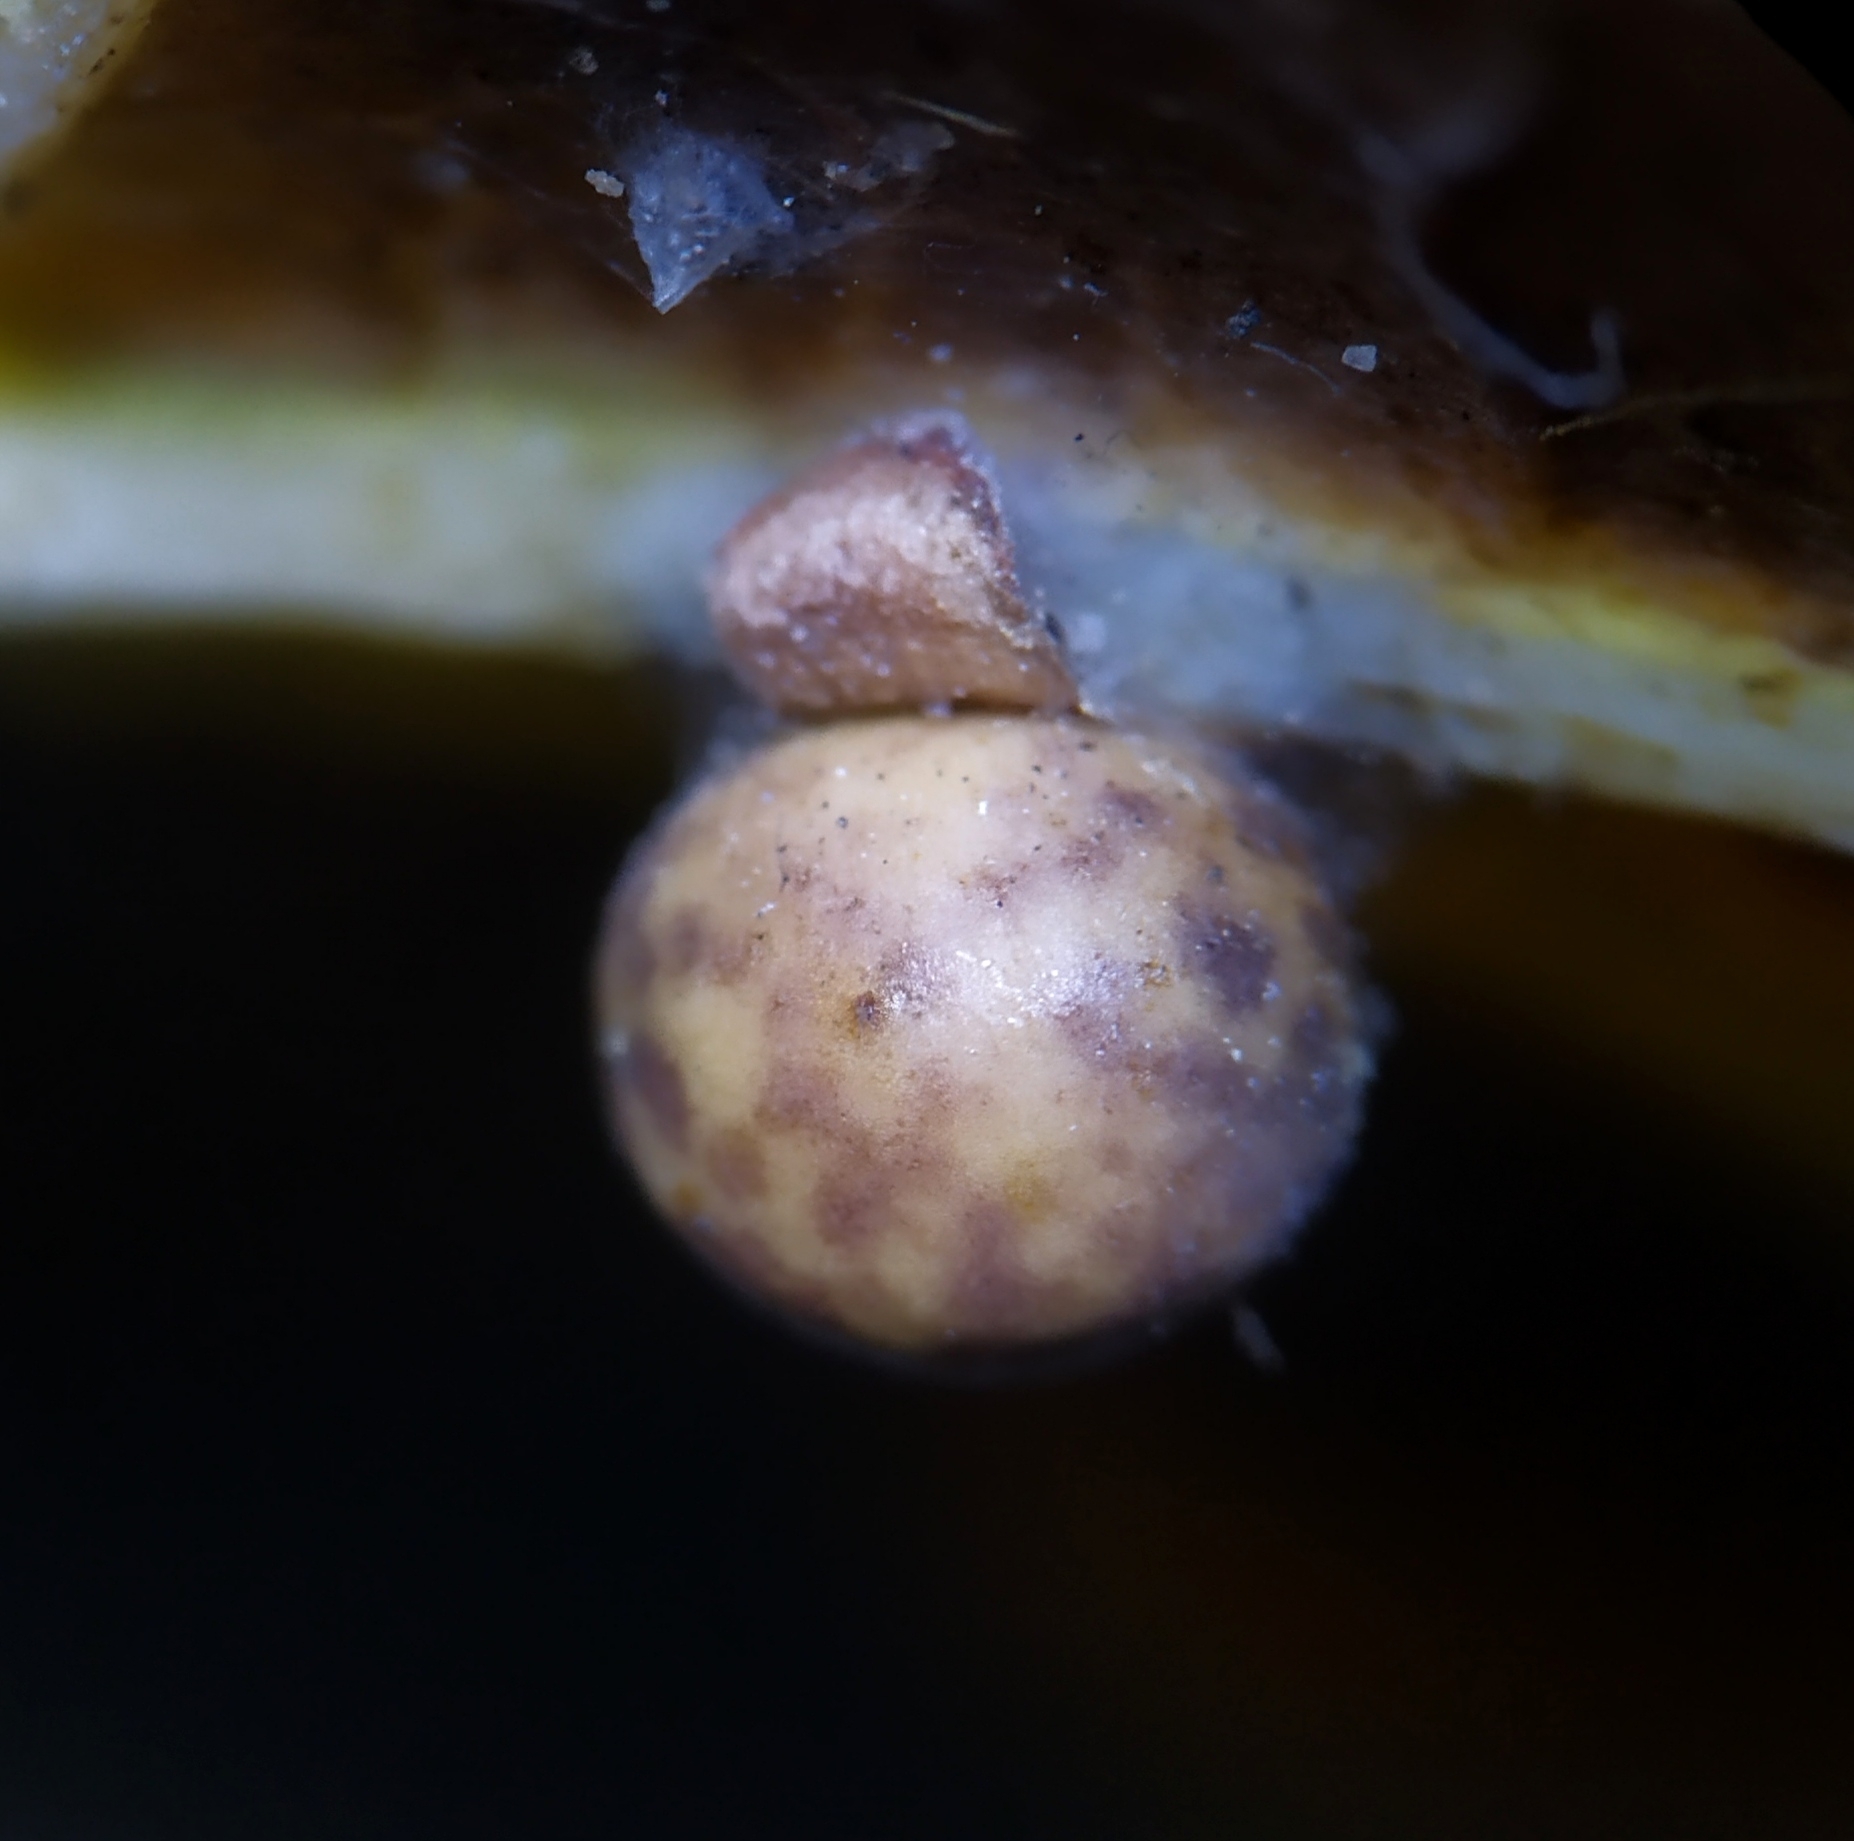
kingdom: Animalia
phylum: Arthropoda
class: Insecta
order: Hymenoptera
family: Cynipidae
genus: Neuroterus
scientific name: Neuroterus anthracinus
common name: Oyster gall
